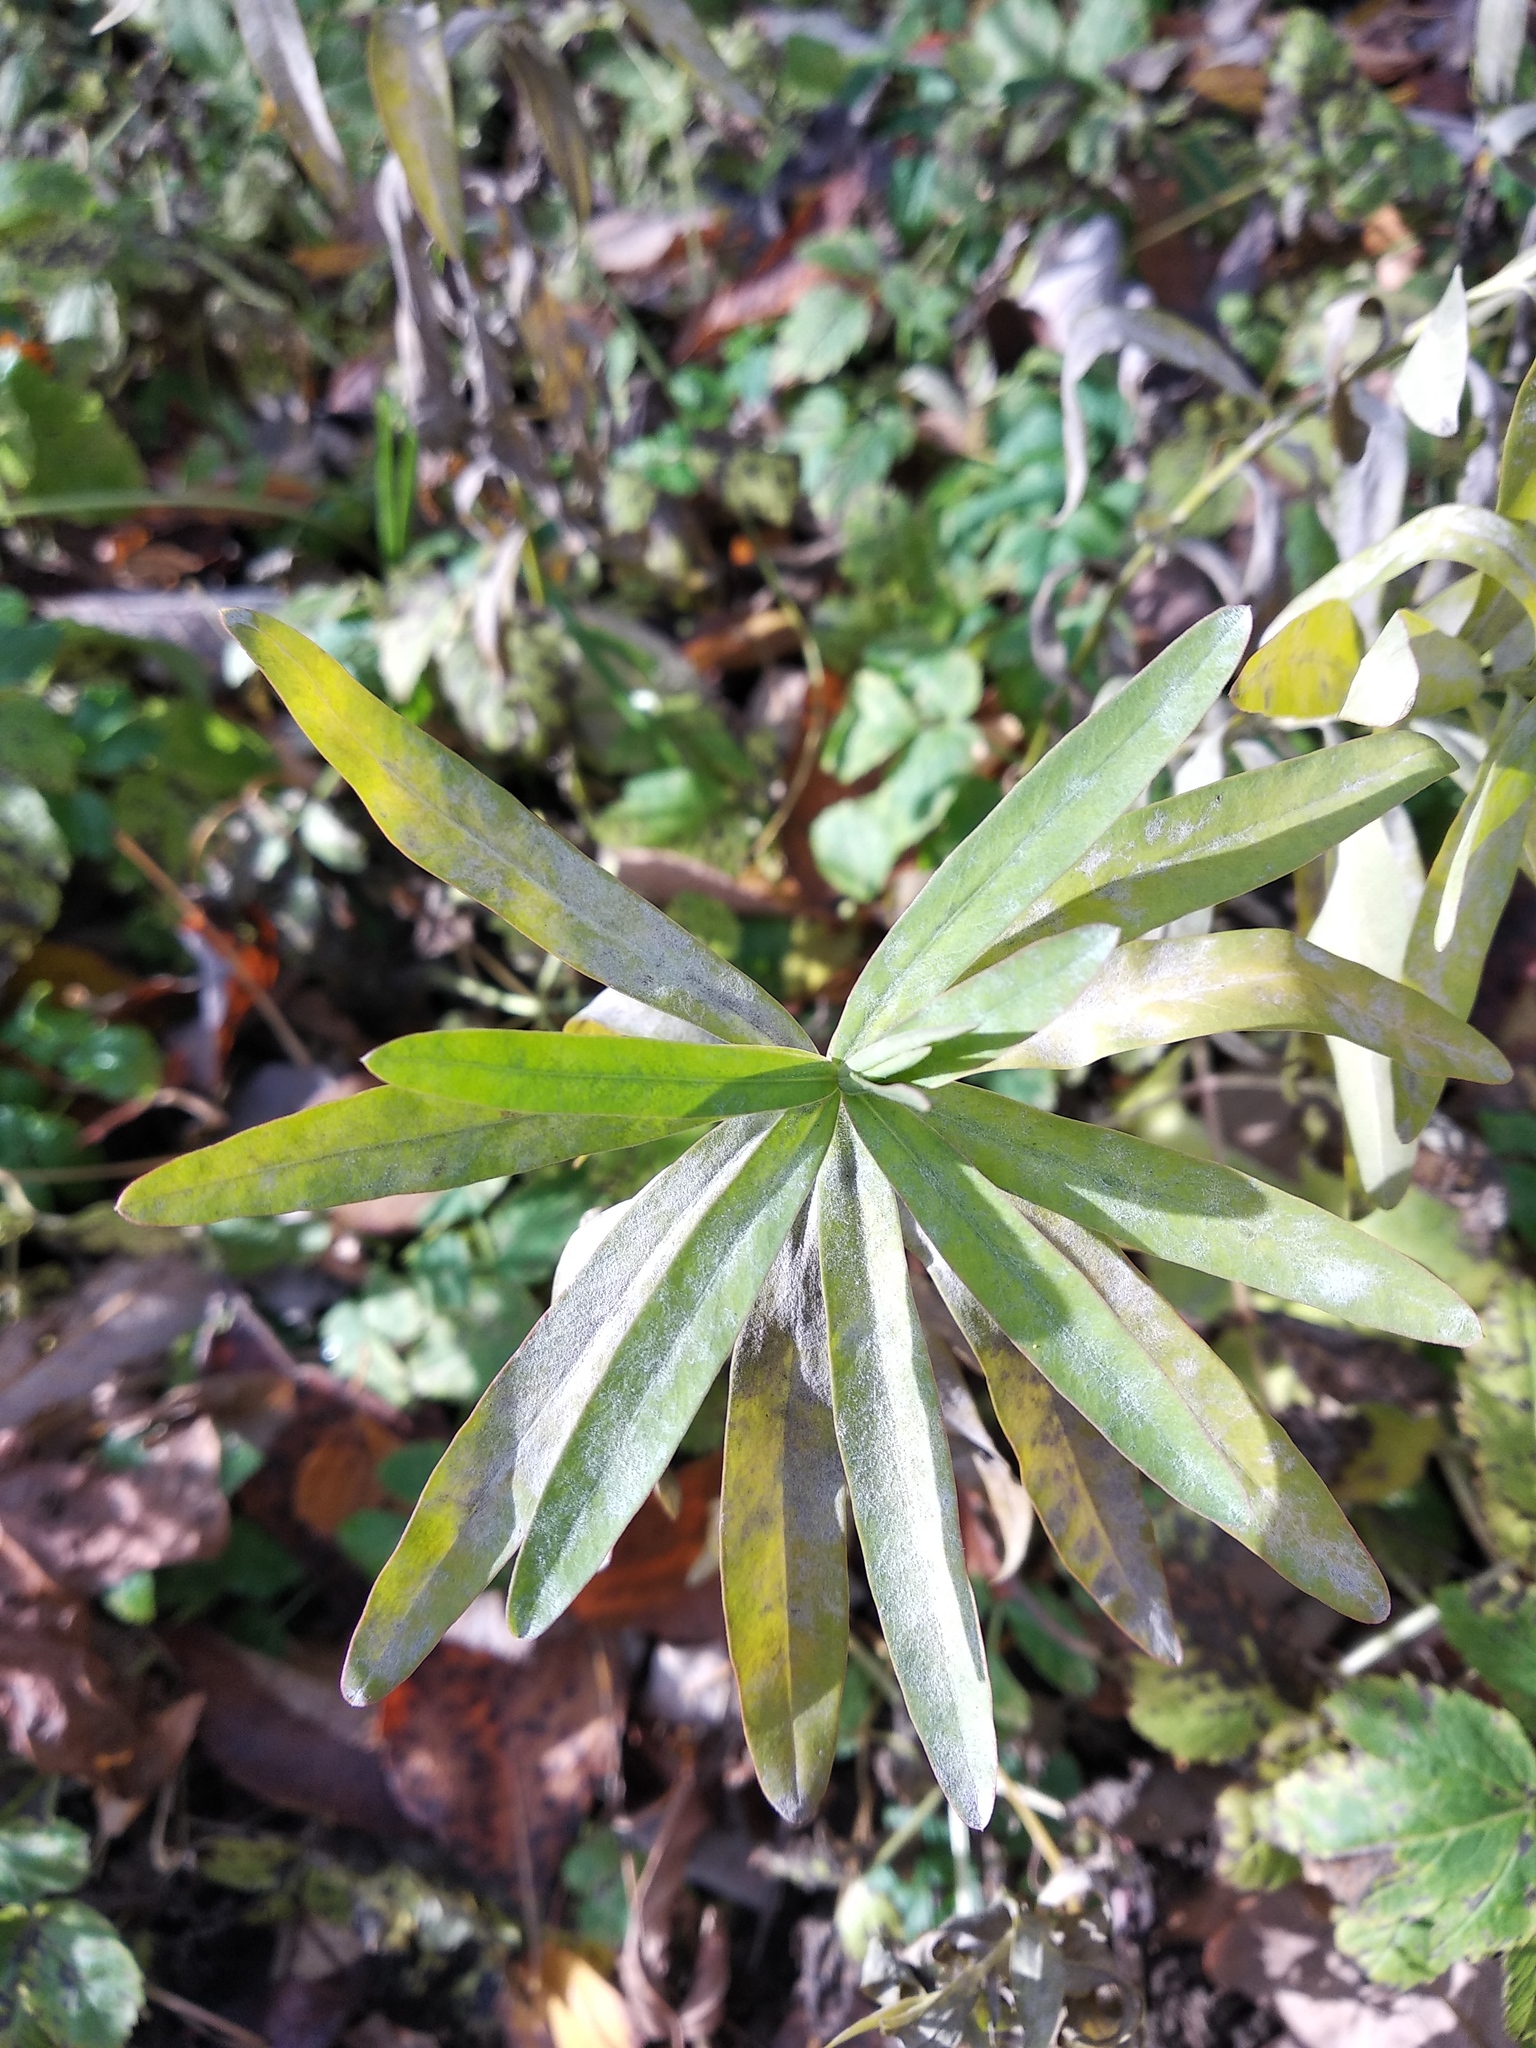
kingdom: Plantae
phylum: Tracheophyta
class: Magnoliopsida
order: Malpighiales
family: Euphorbiaceae
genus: Euphorbia
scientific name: Euphorbia virgata
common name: Leafy spurge
